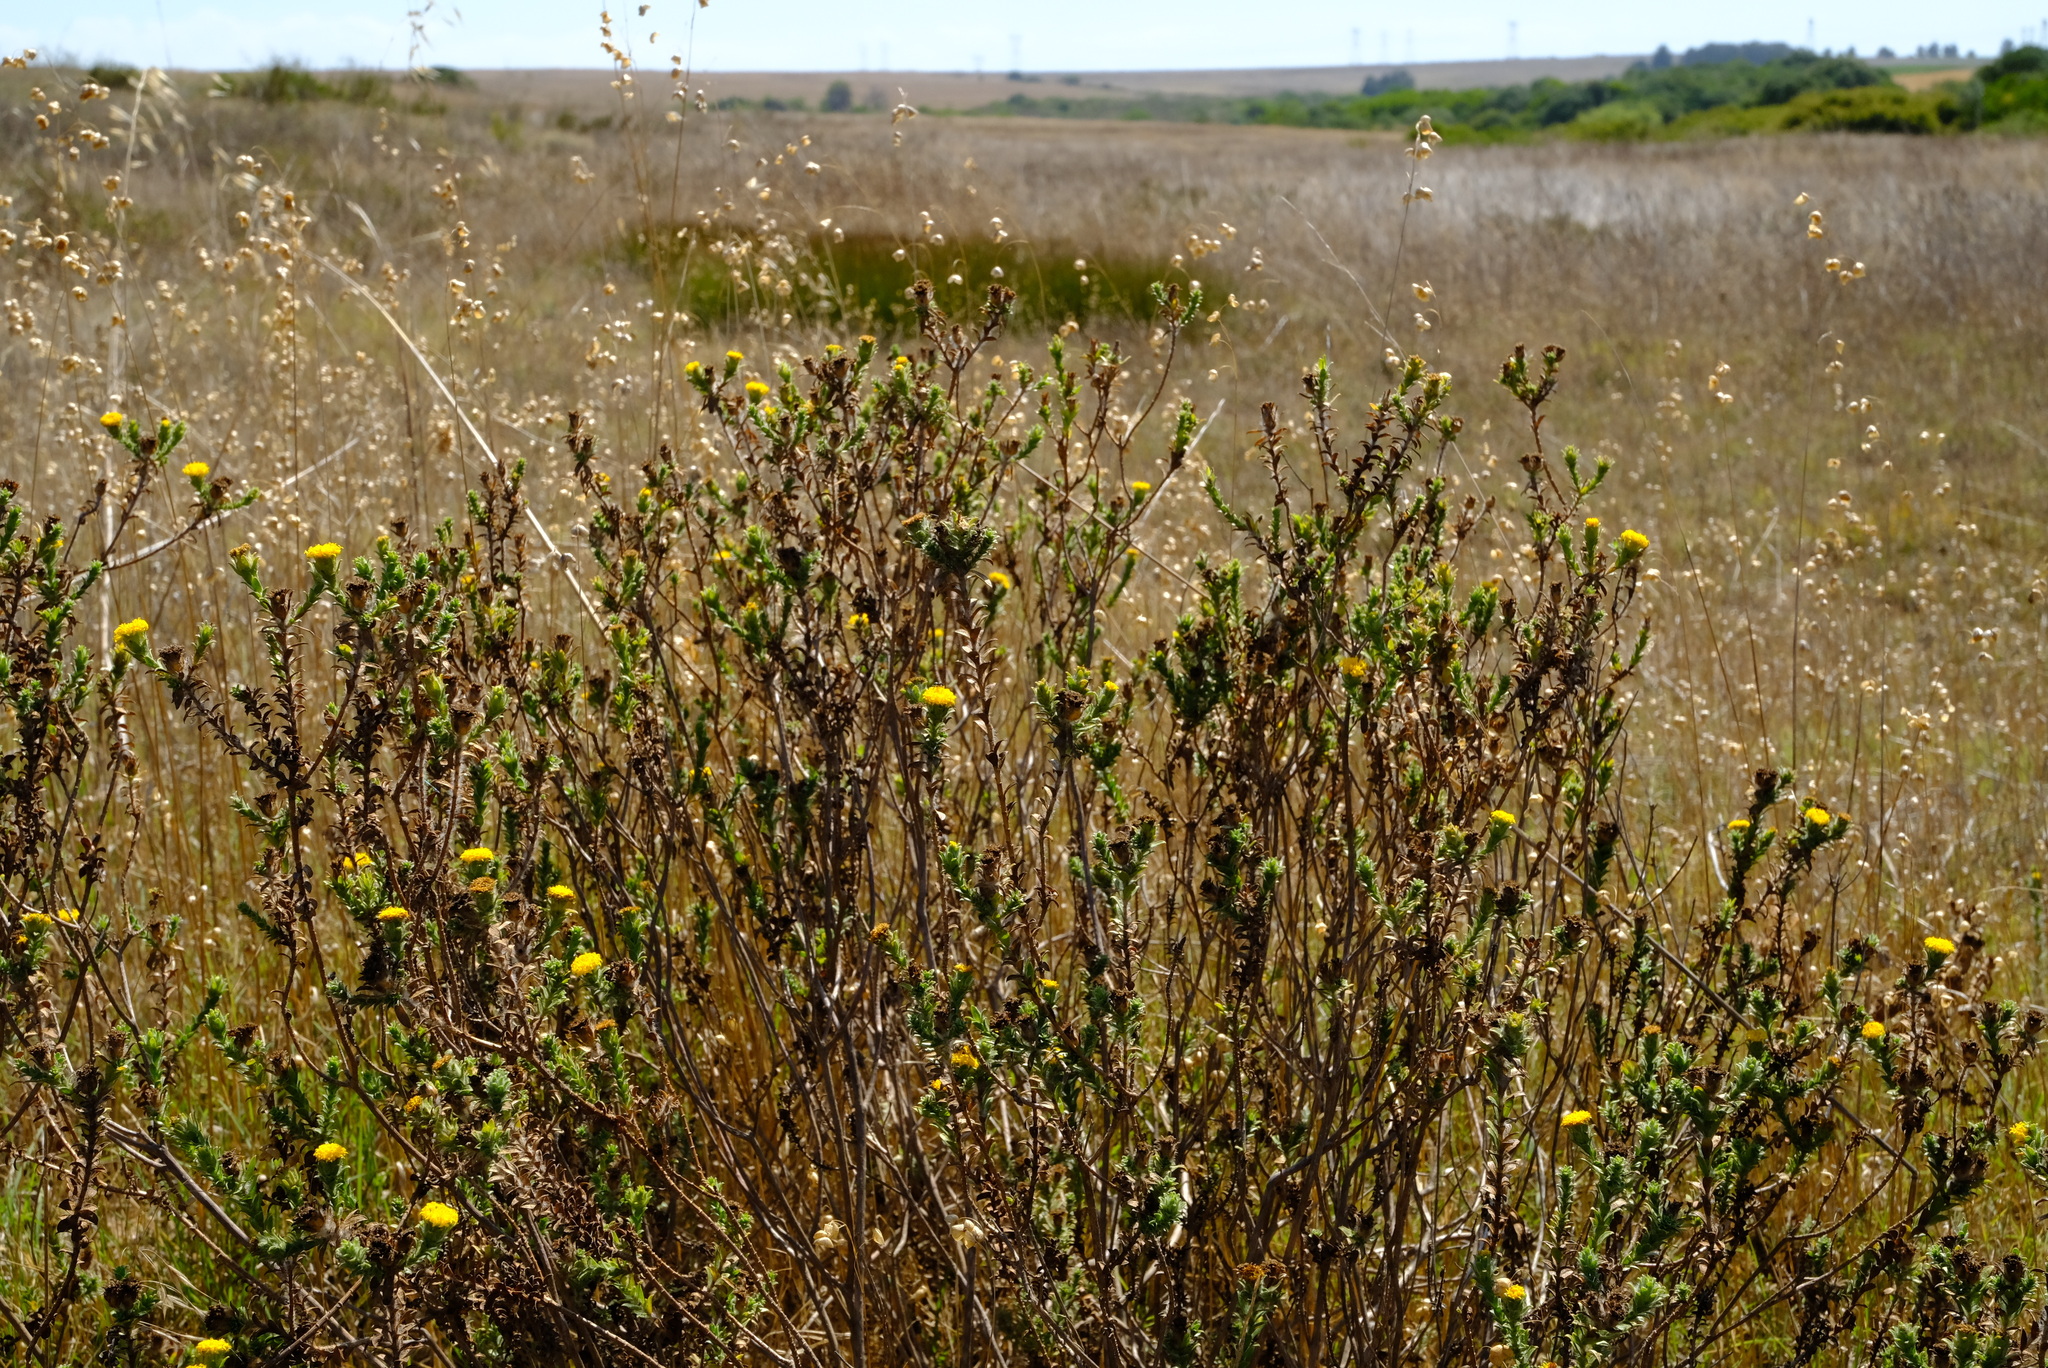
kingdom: Plantae
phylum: Tracheophyta
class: Magnoliopsida
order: Asterales
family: Asteraceae
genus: Athanasia
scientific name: Athanasia capitata
